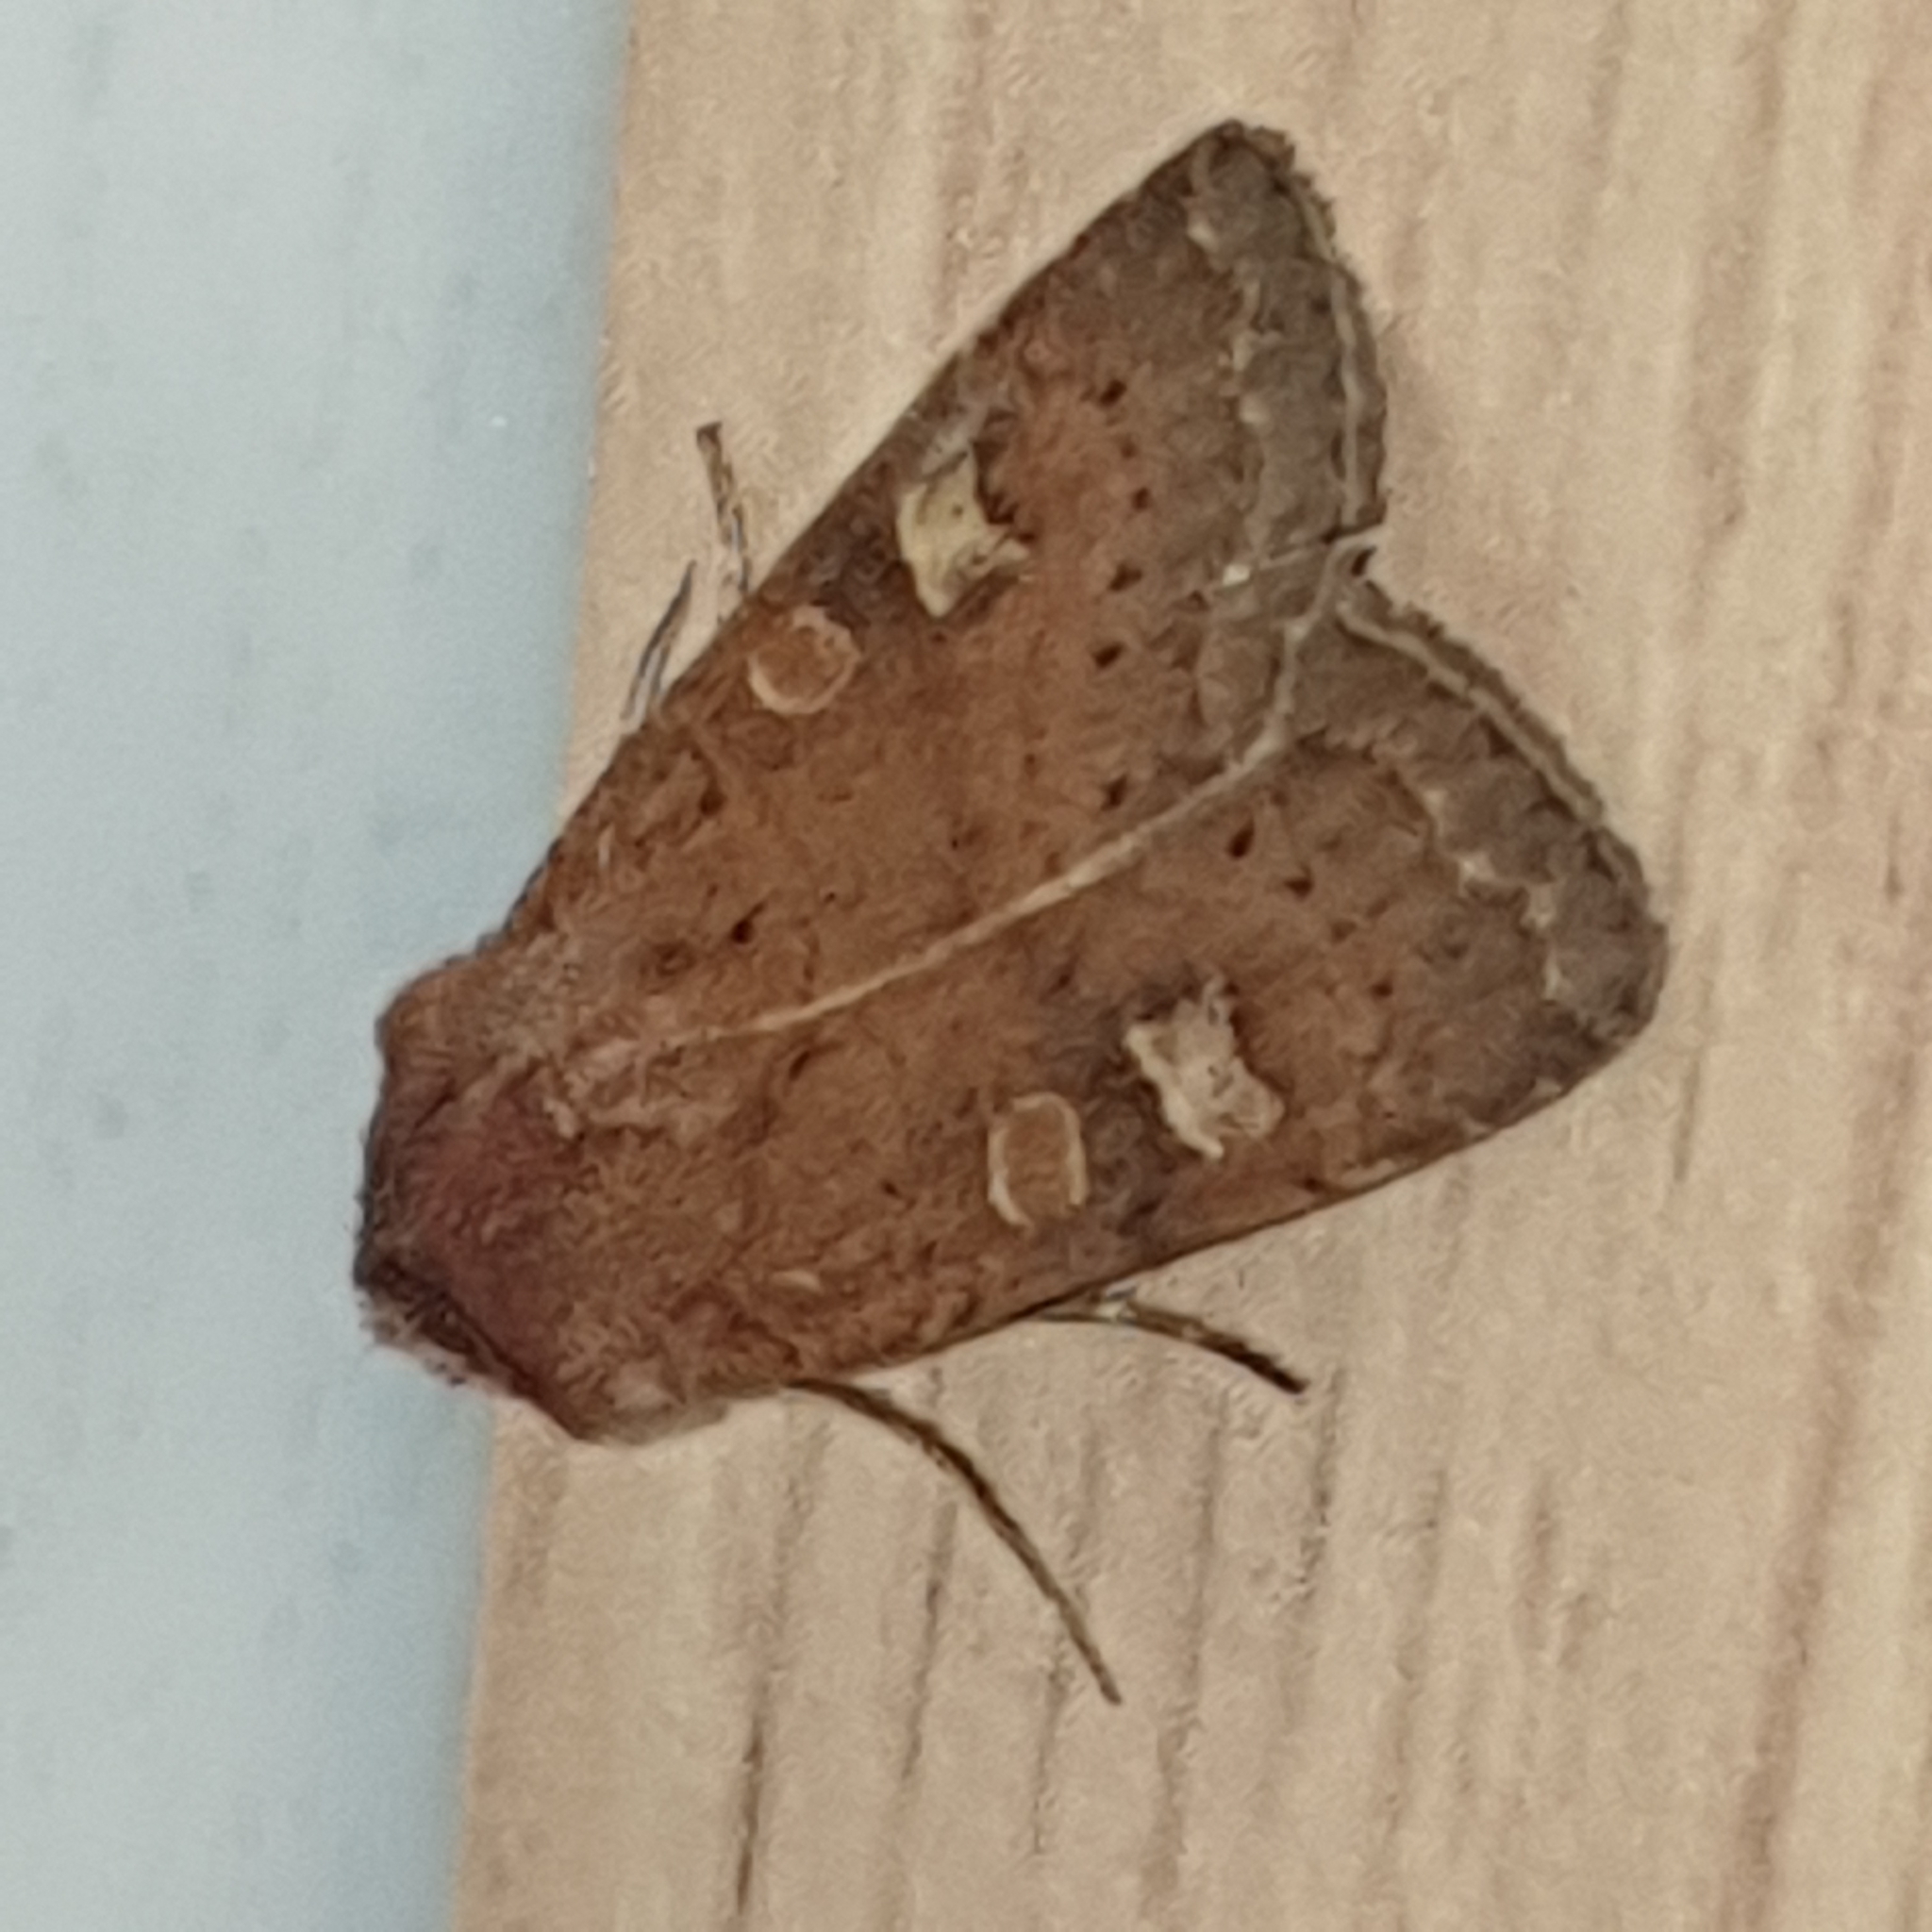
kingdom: Animalia
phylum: Arthropoda
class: Insecta
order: Lepidoptera
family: Noctuidae
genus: Xestia
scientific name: Xestia xanthographa
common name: Square-spot rustic
